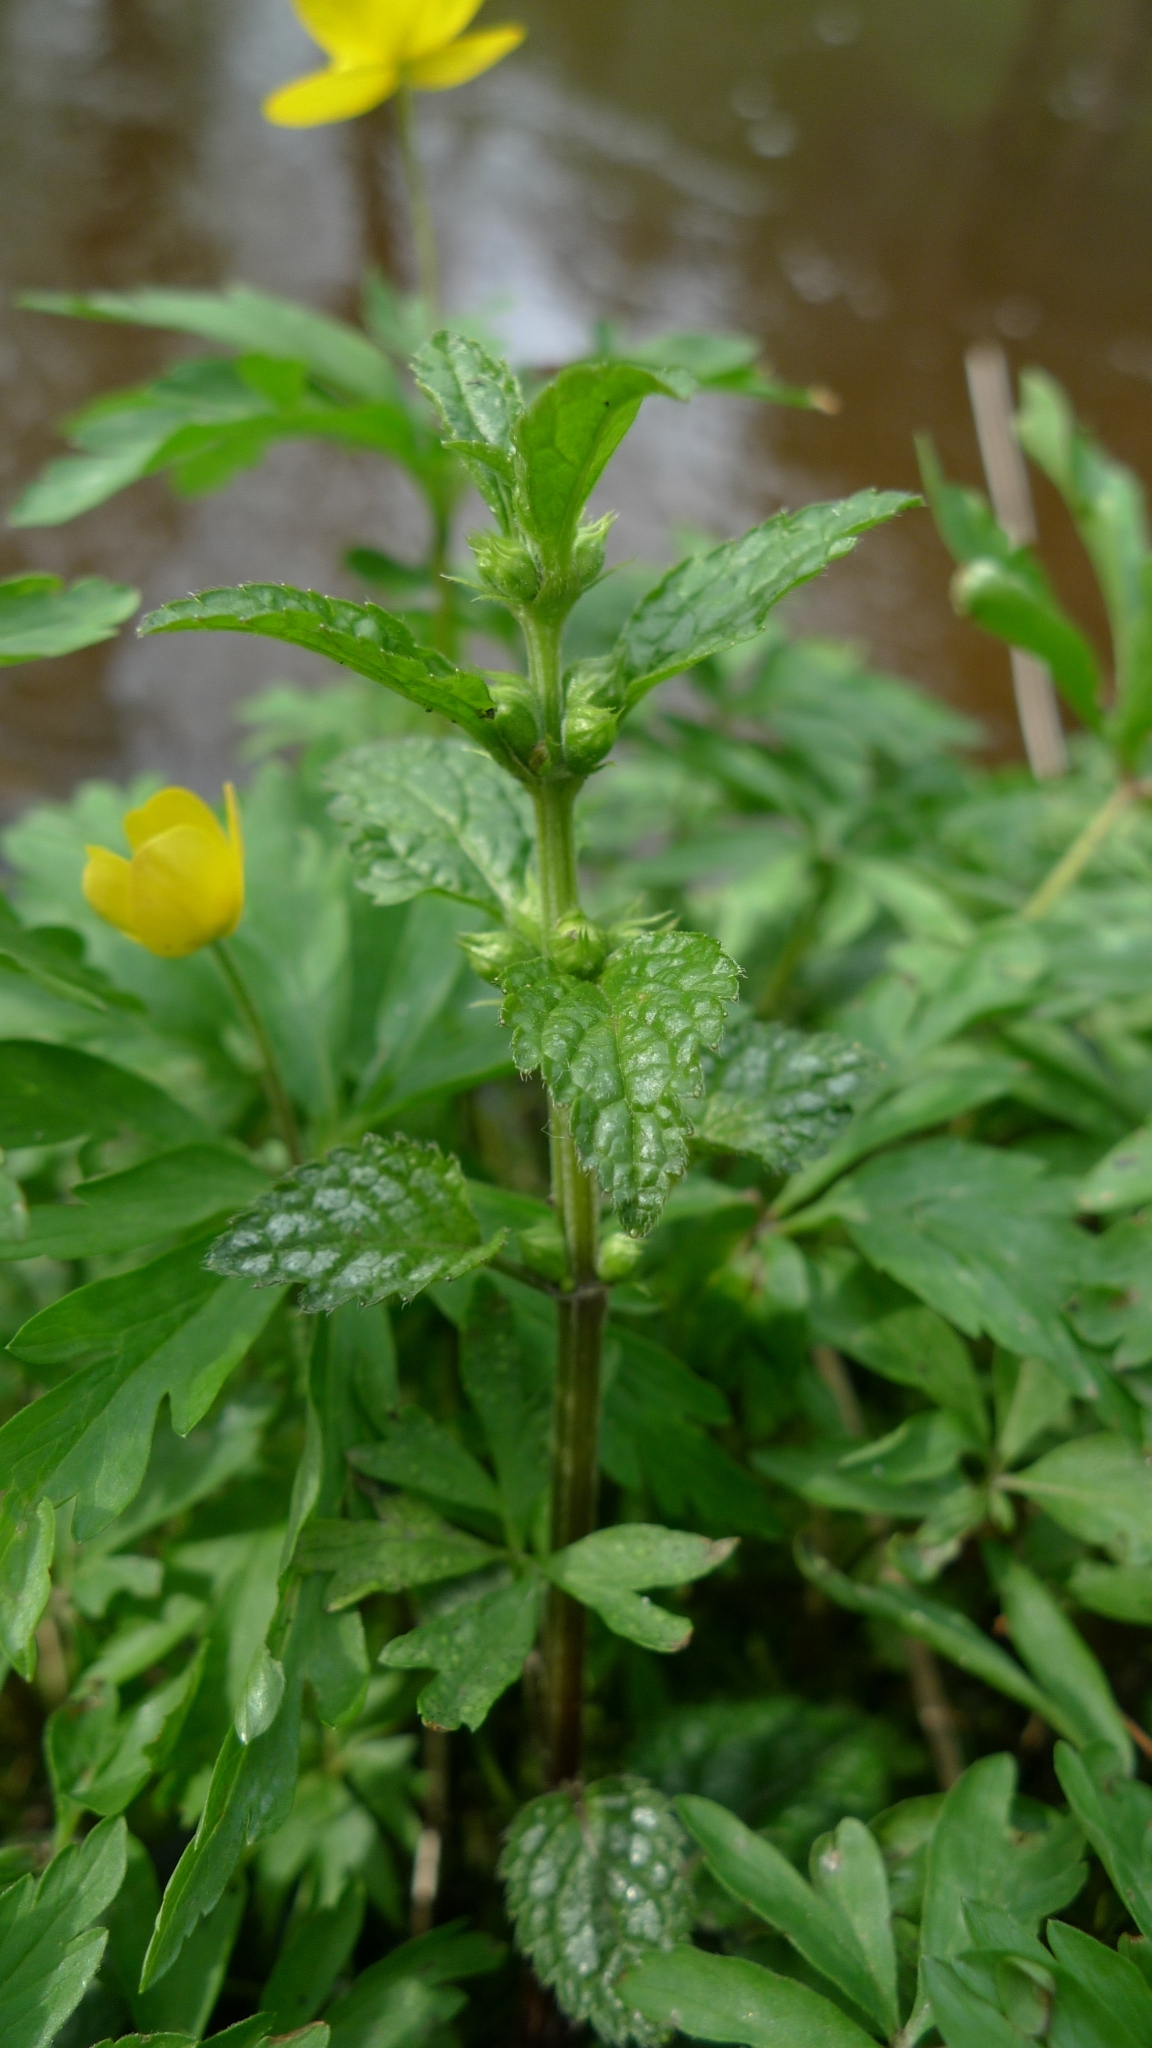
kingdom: Plantae
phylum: Tracheophyta
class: Magnoliopsida
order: Lamiales
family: Lamiaceae
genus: Lamium
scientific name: Lamium galeobdolon
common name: Yellow archangel
